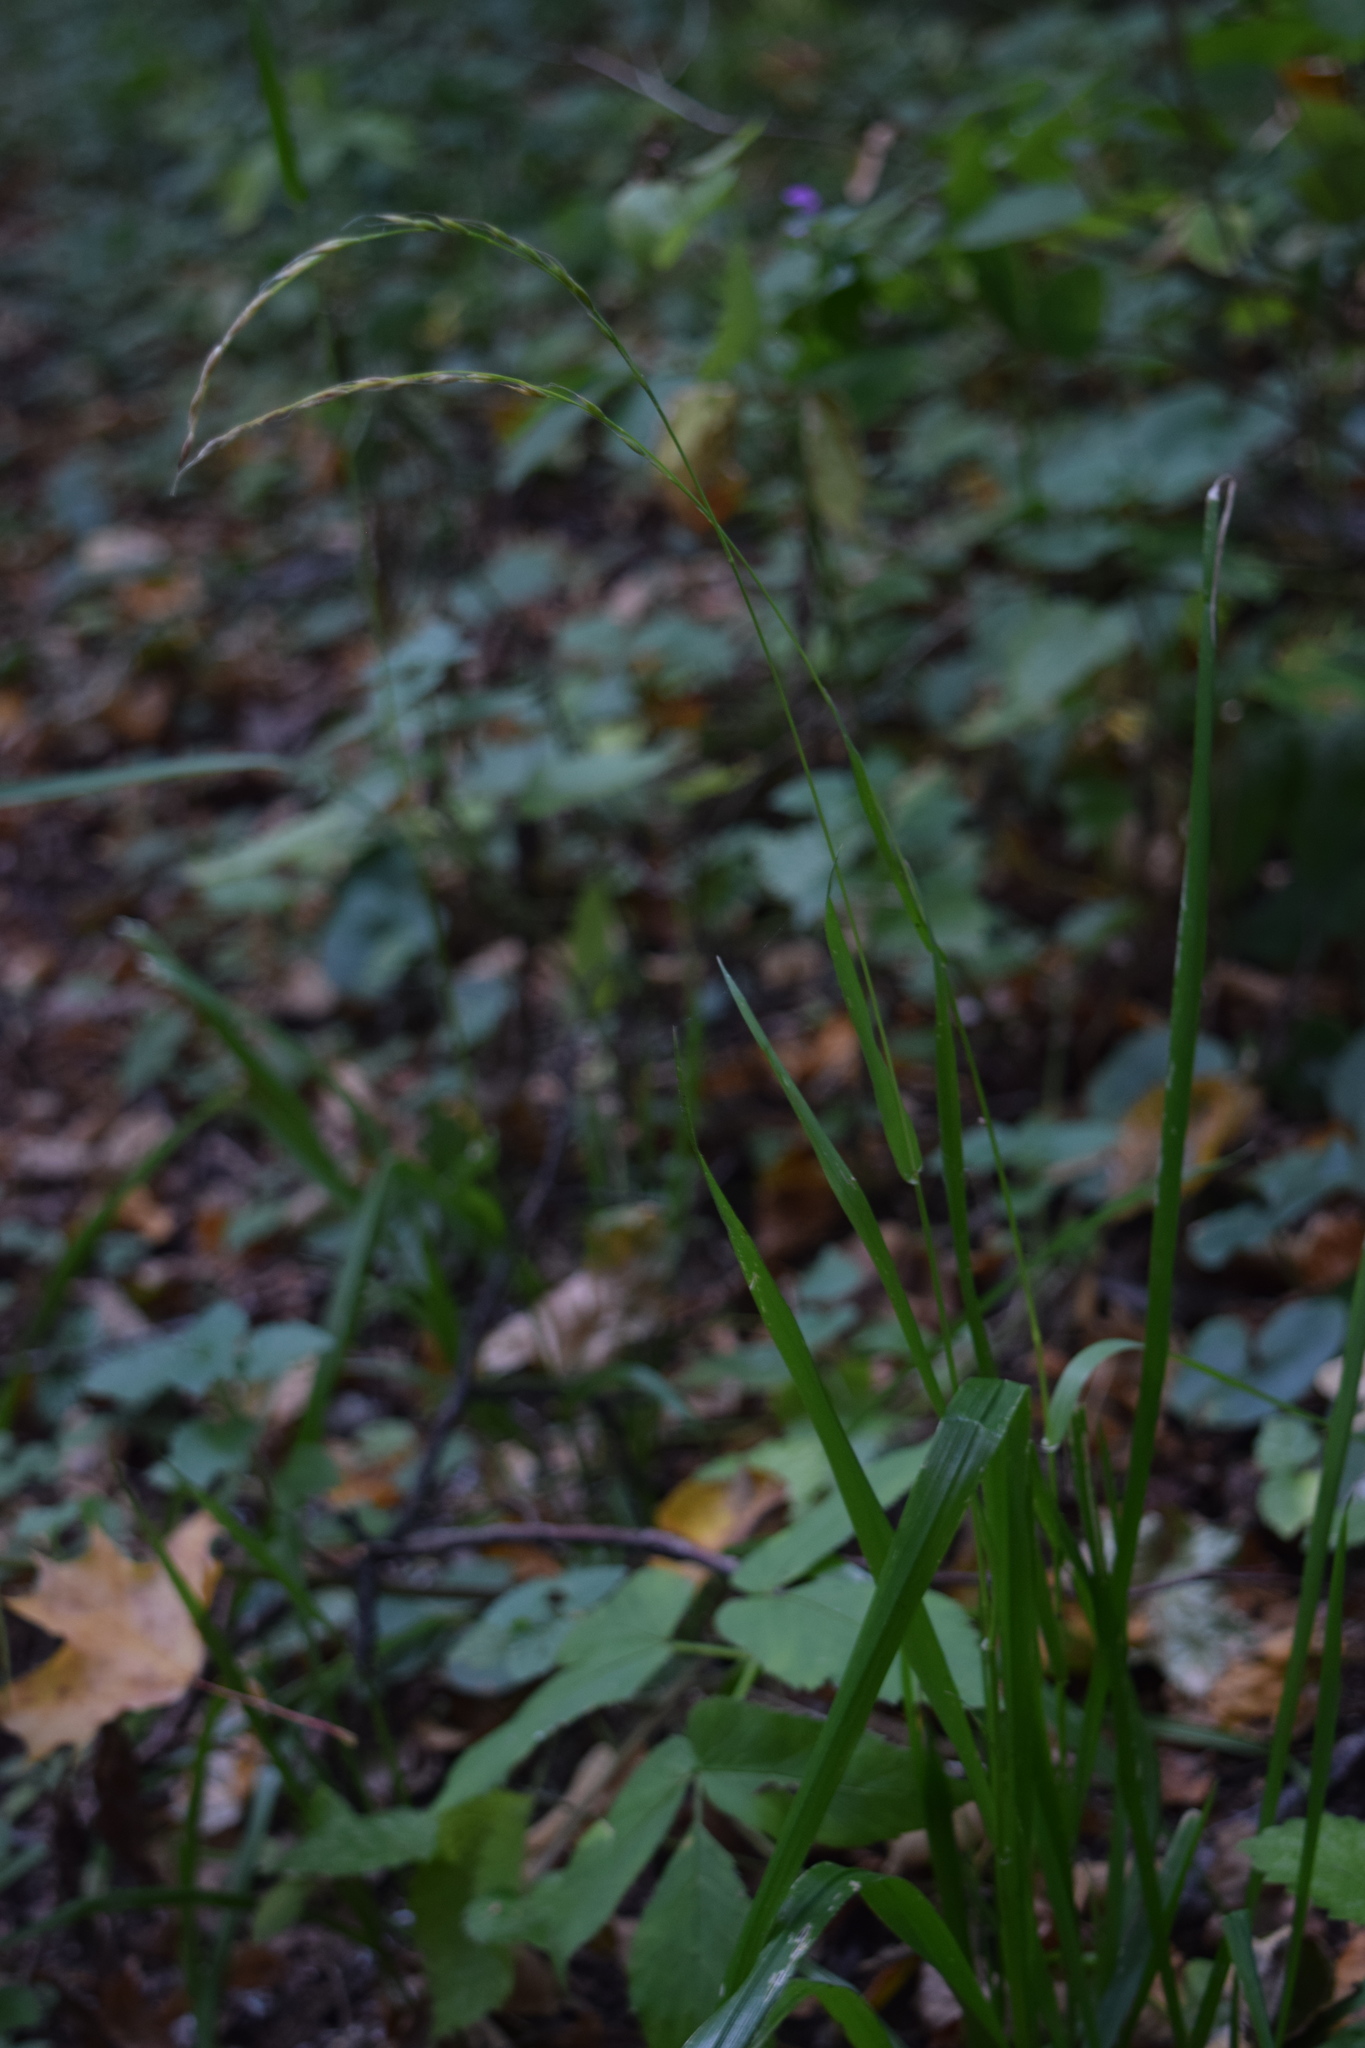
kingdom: Plantae
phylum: Tracheophyta
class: Liliopsida
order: Poales
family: Poaceae
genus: Lolium
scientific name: Lolium giganteum
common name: Giant fescue
